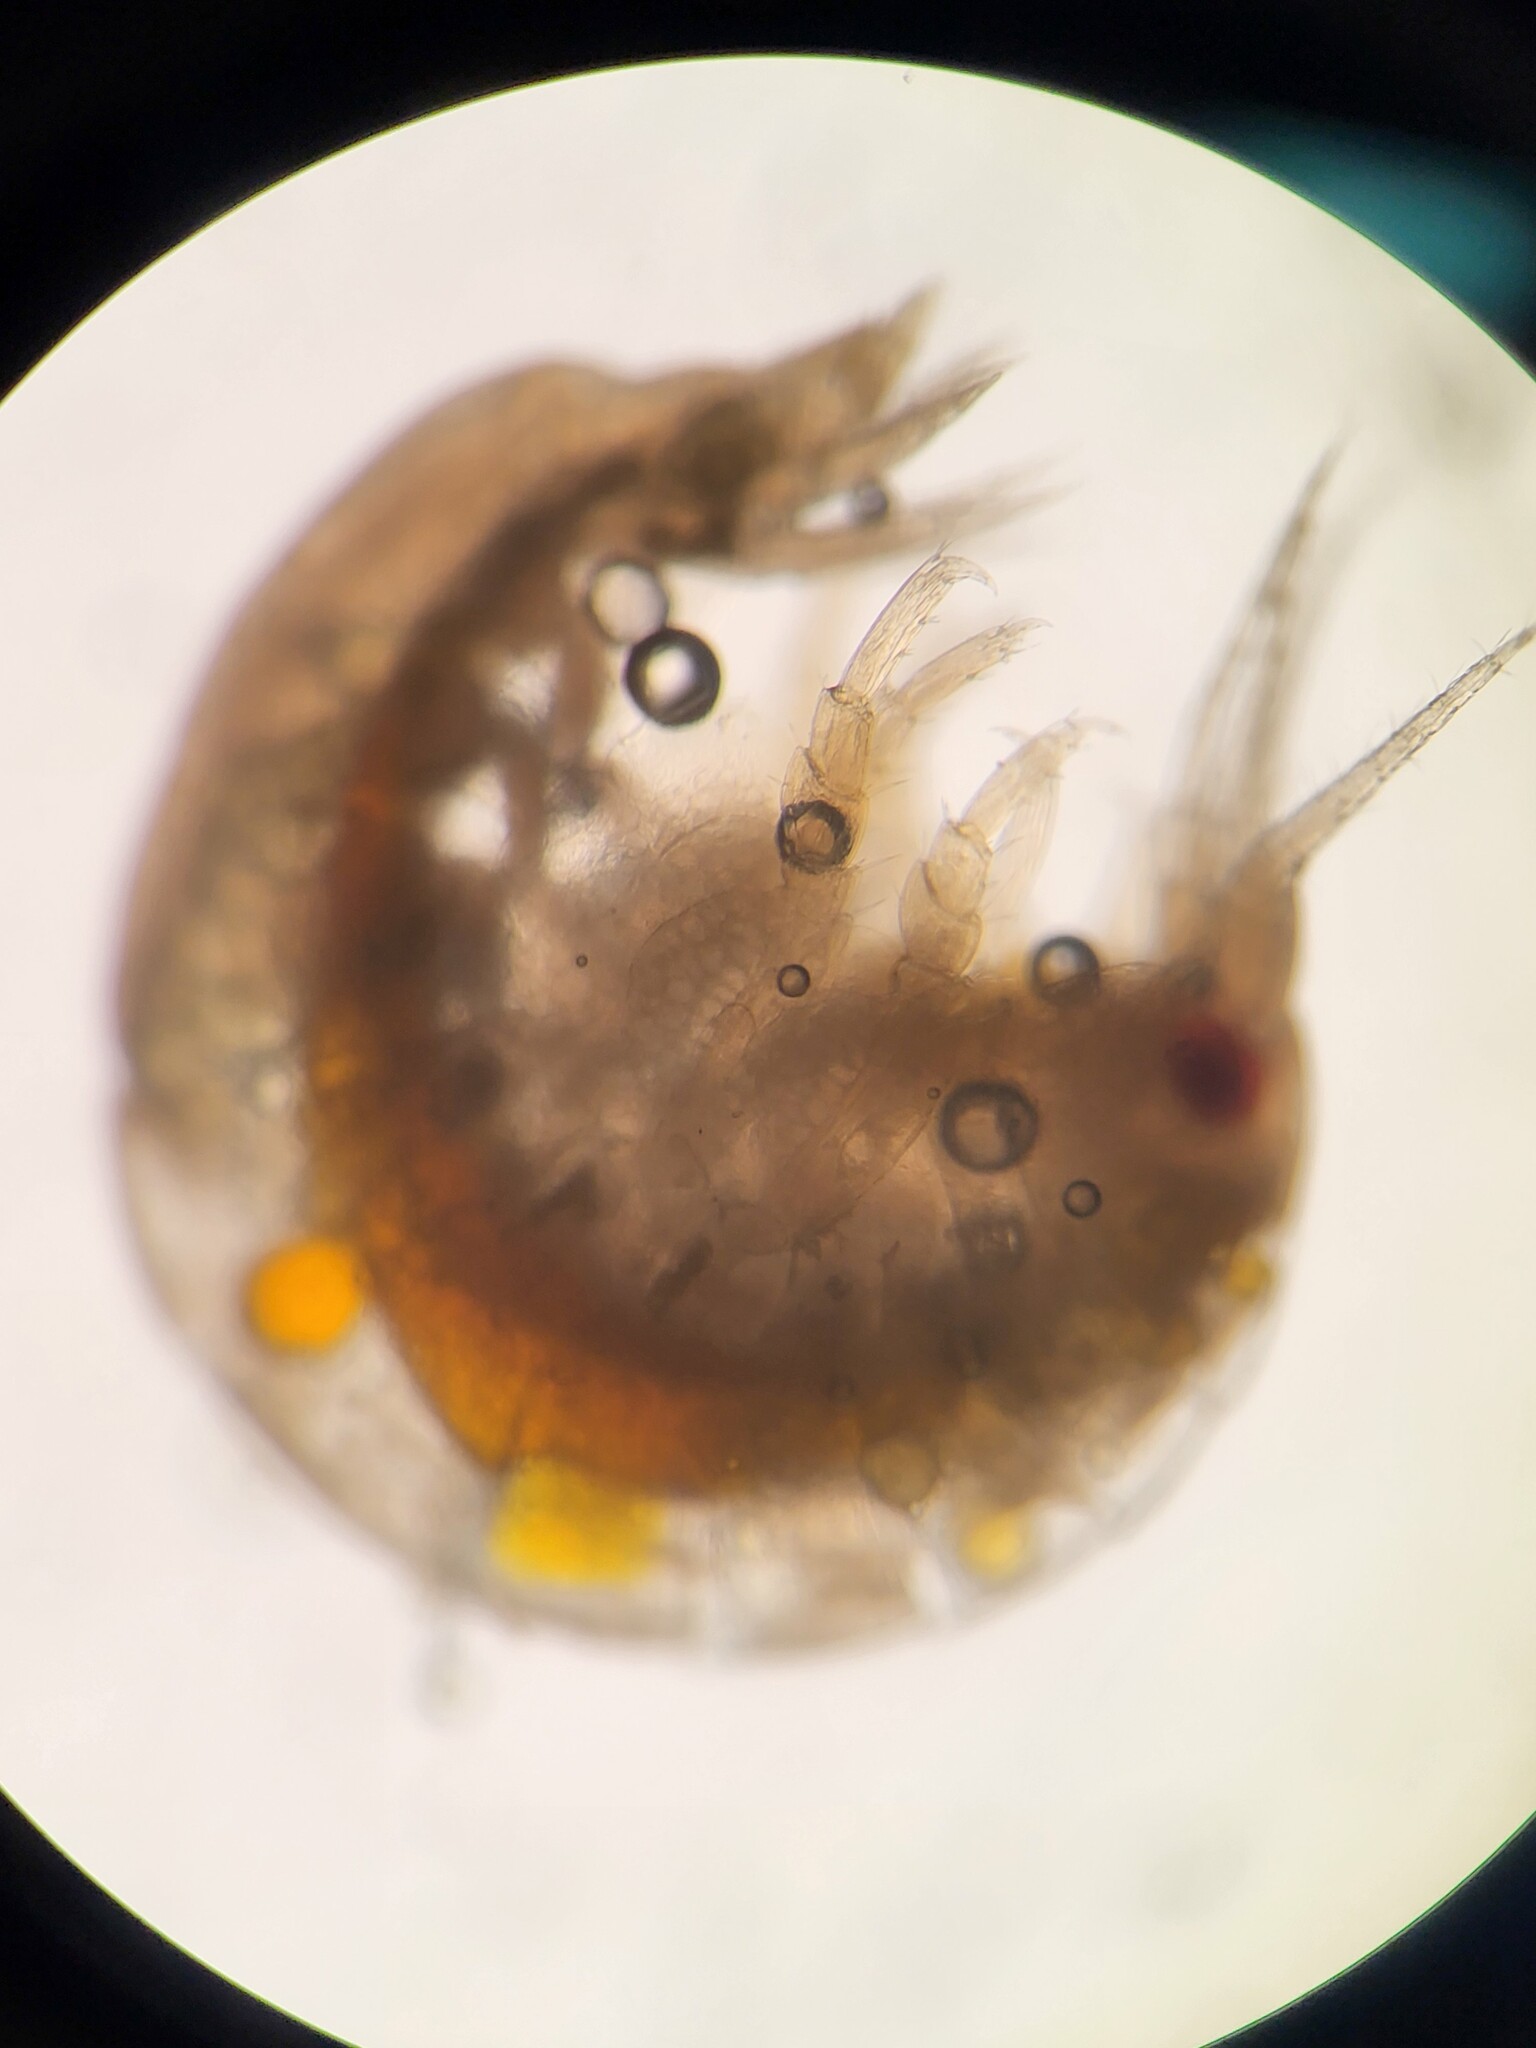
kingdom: Animalia
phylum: Arthropoda
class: Malacostraca
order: Amphipoda
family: Uristidae
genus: Onisimus
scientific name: Onisimus glacialis
